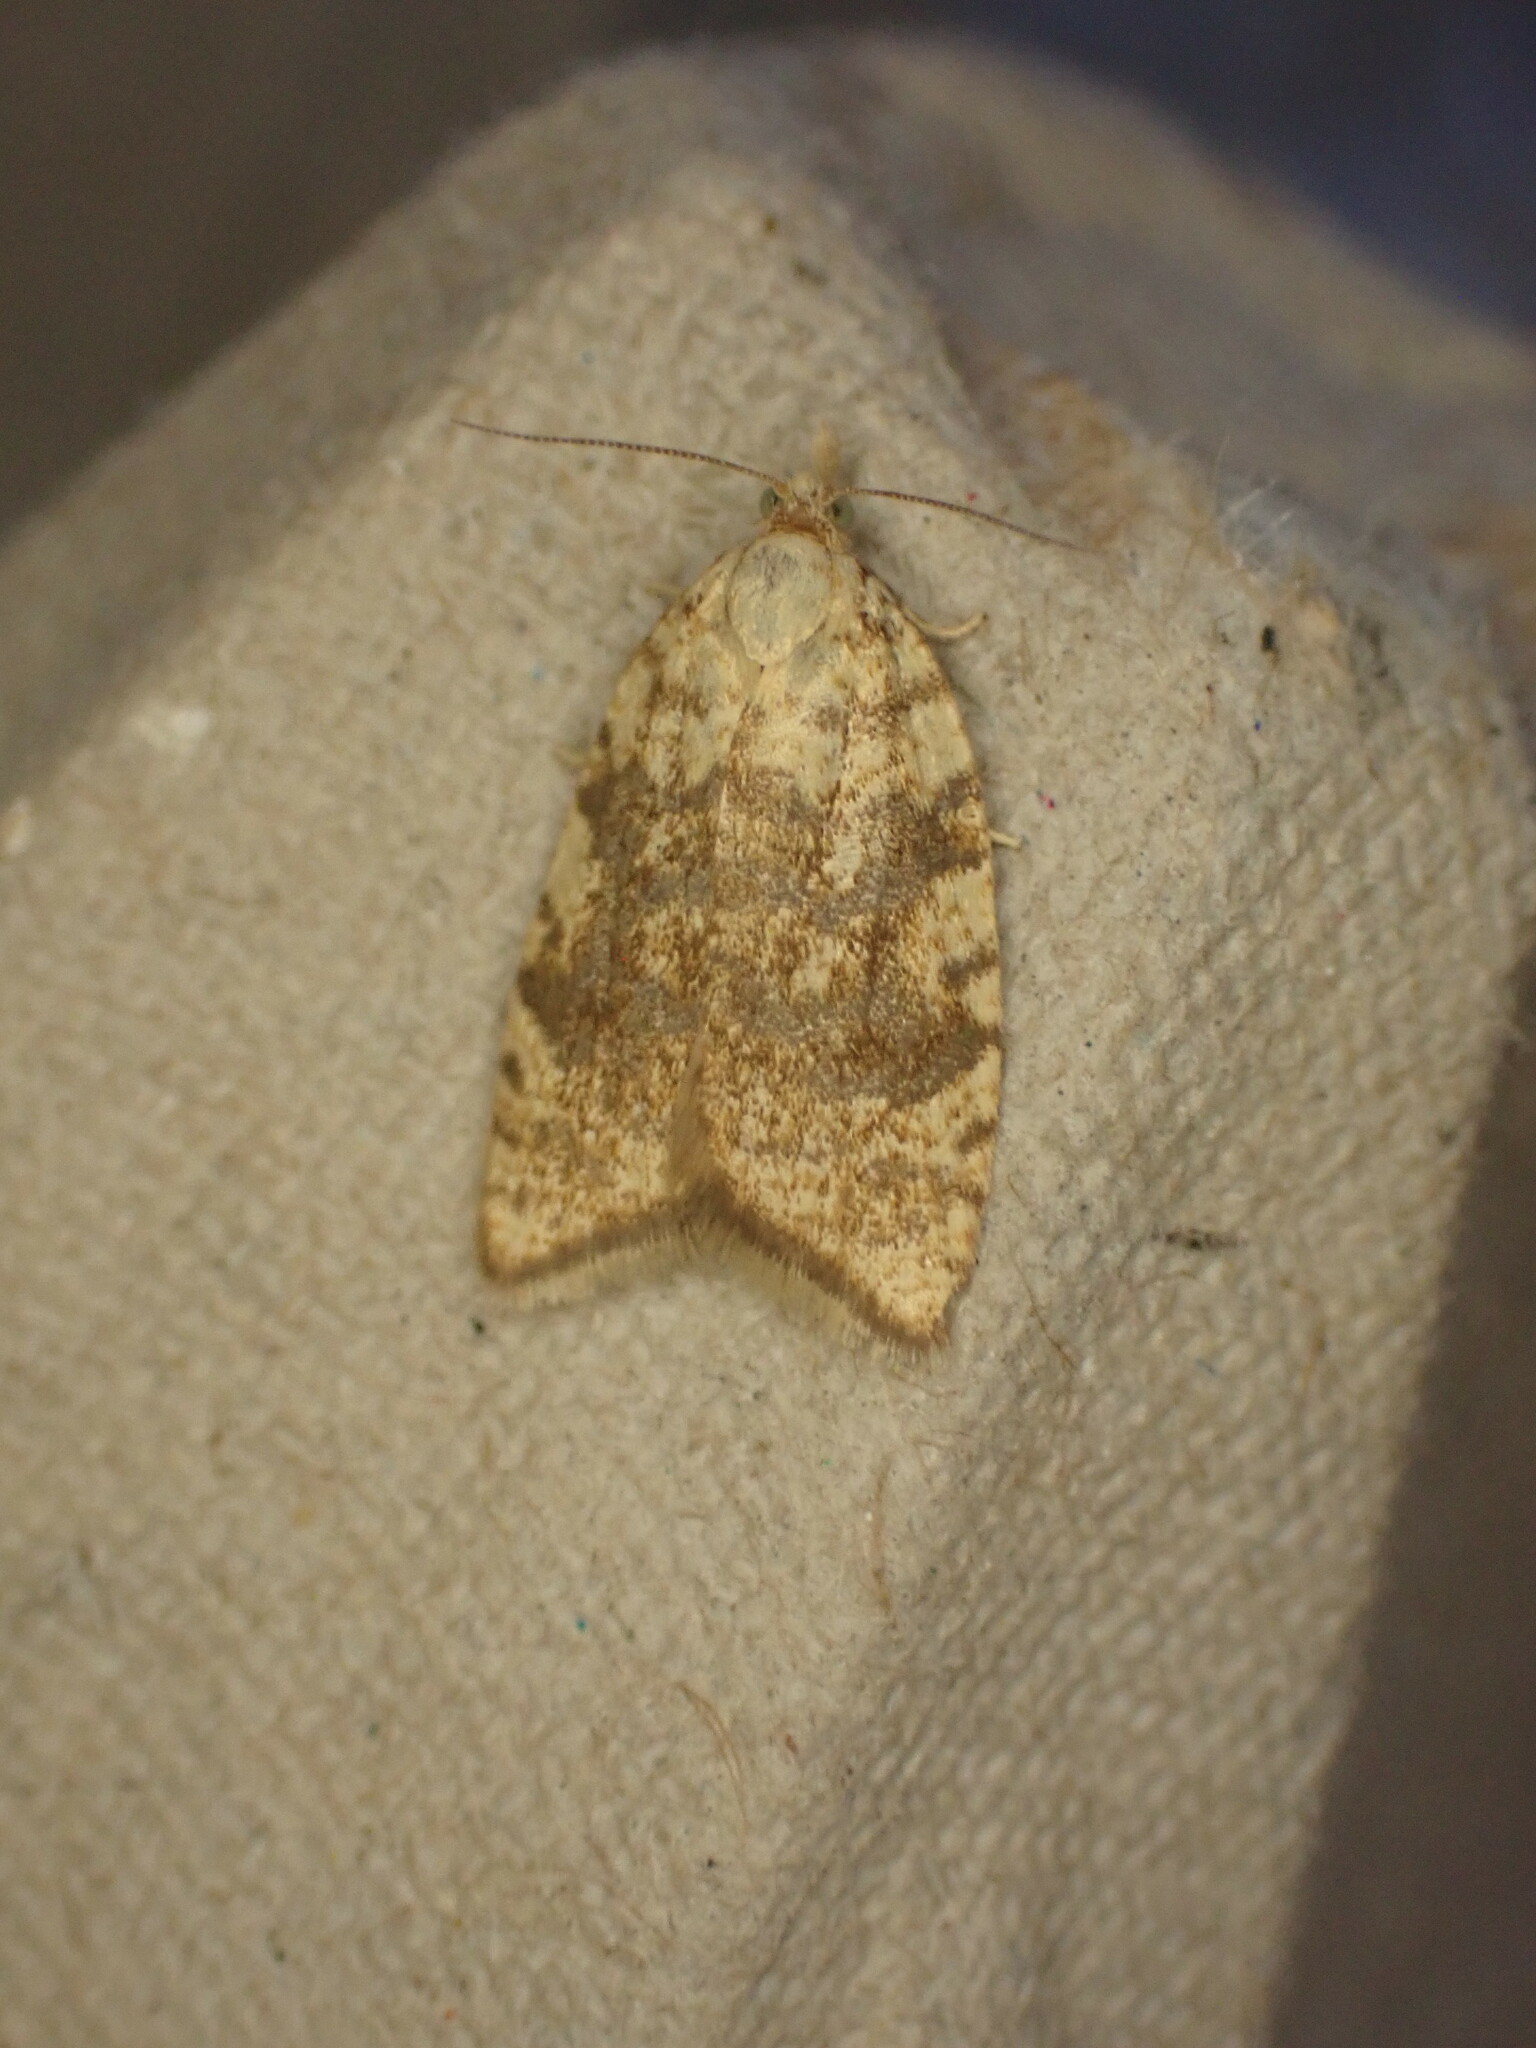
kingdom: Animalia
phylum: Arthropoda
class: Insecta
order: Lepidoptera
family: Tortricidae
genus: Aleimma
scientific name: Aleimma loeflingiana
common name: Yellow oak button
